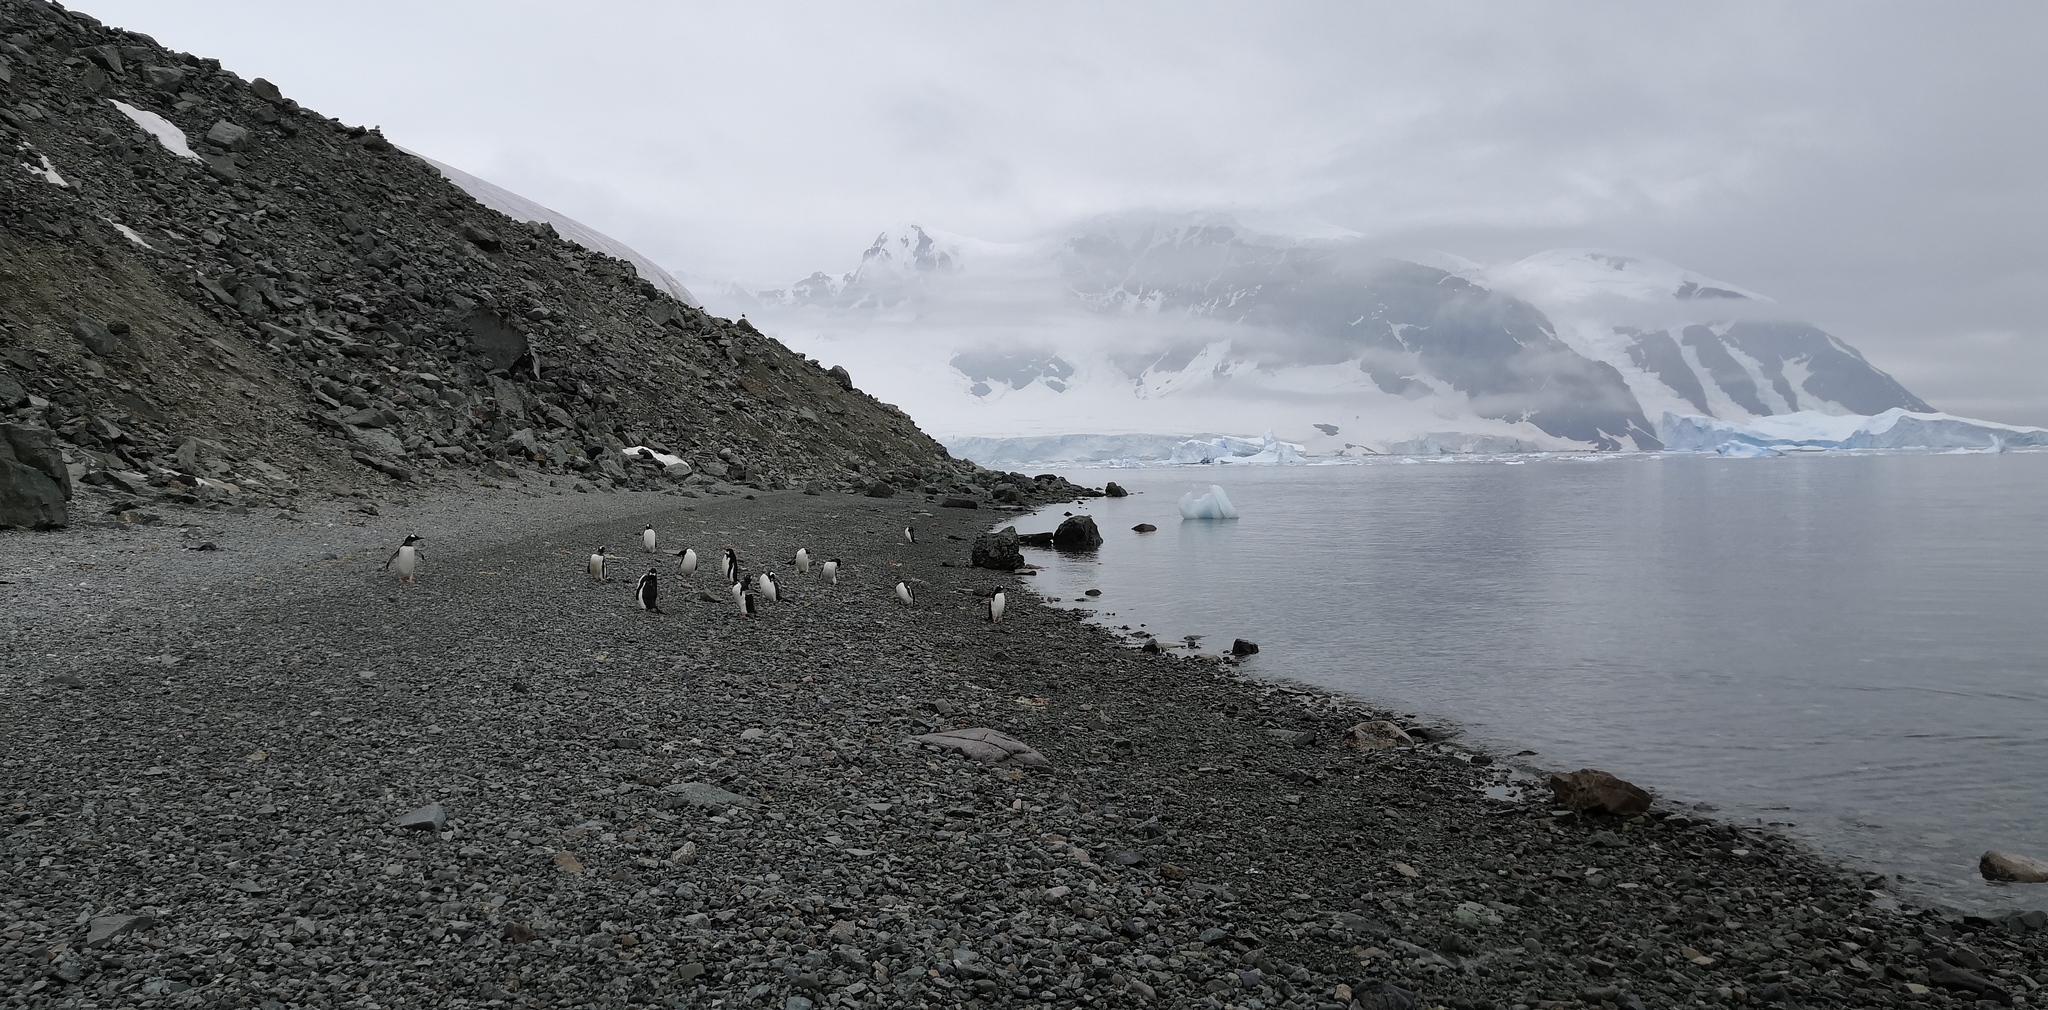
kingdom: Animalia
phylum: Chordata
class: Aves
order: Sphenisciformes
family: Spheniscidae
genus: Pygoscelis
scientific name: Pygoscelis papua
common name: Gentoo penguin
